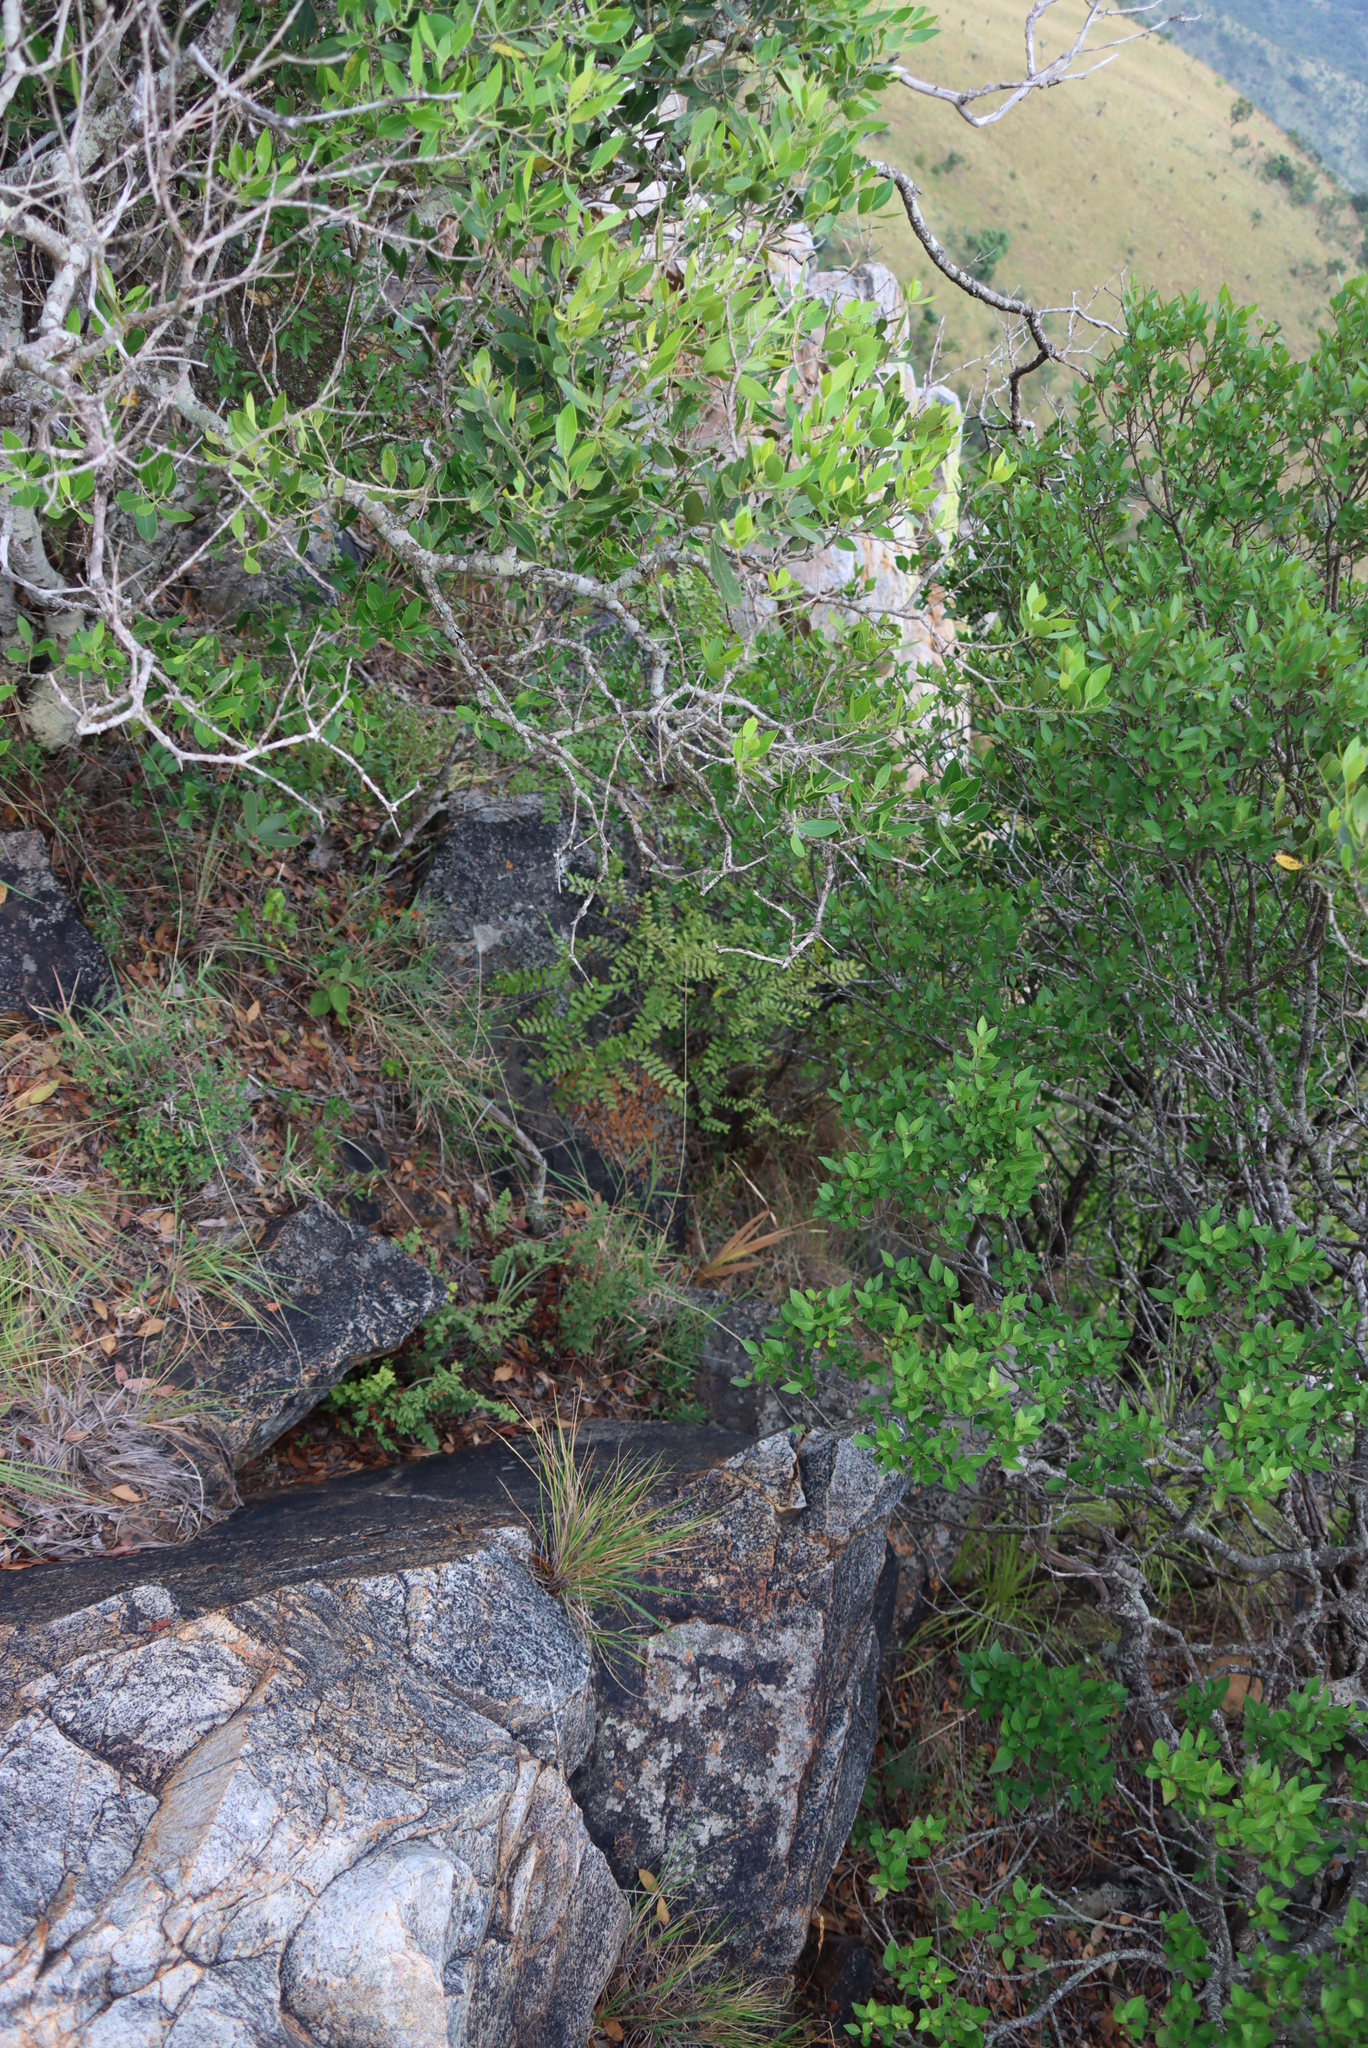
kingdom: Plantae
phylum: Tracheophyta
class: Magnoliopsida
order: Sapindales
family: Rutaceae
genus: Ptaeroxylon
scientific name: Ptaeroxylon obliquum
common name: Sneezewood
